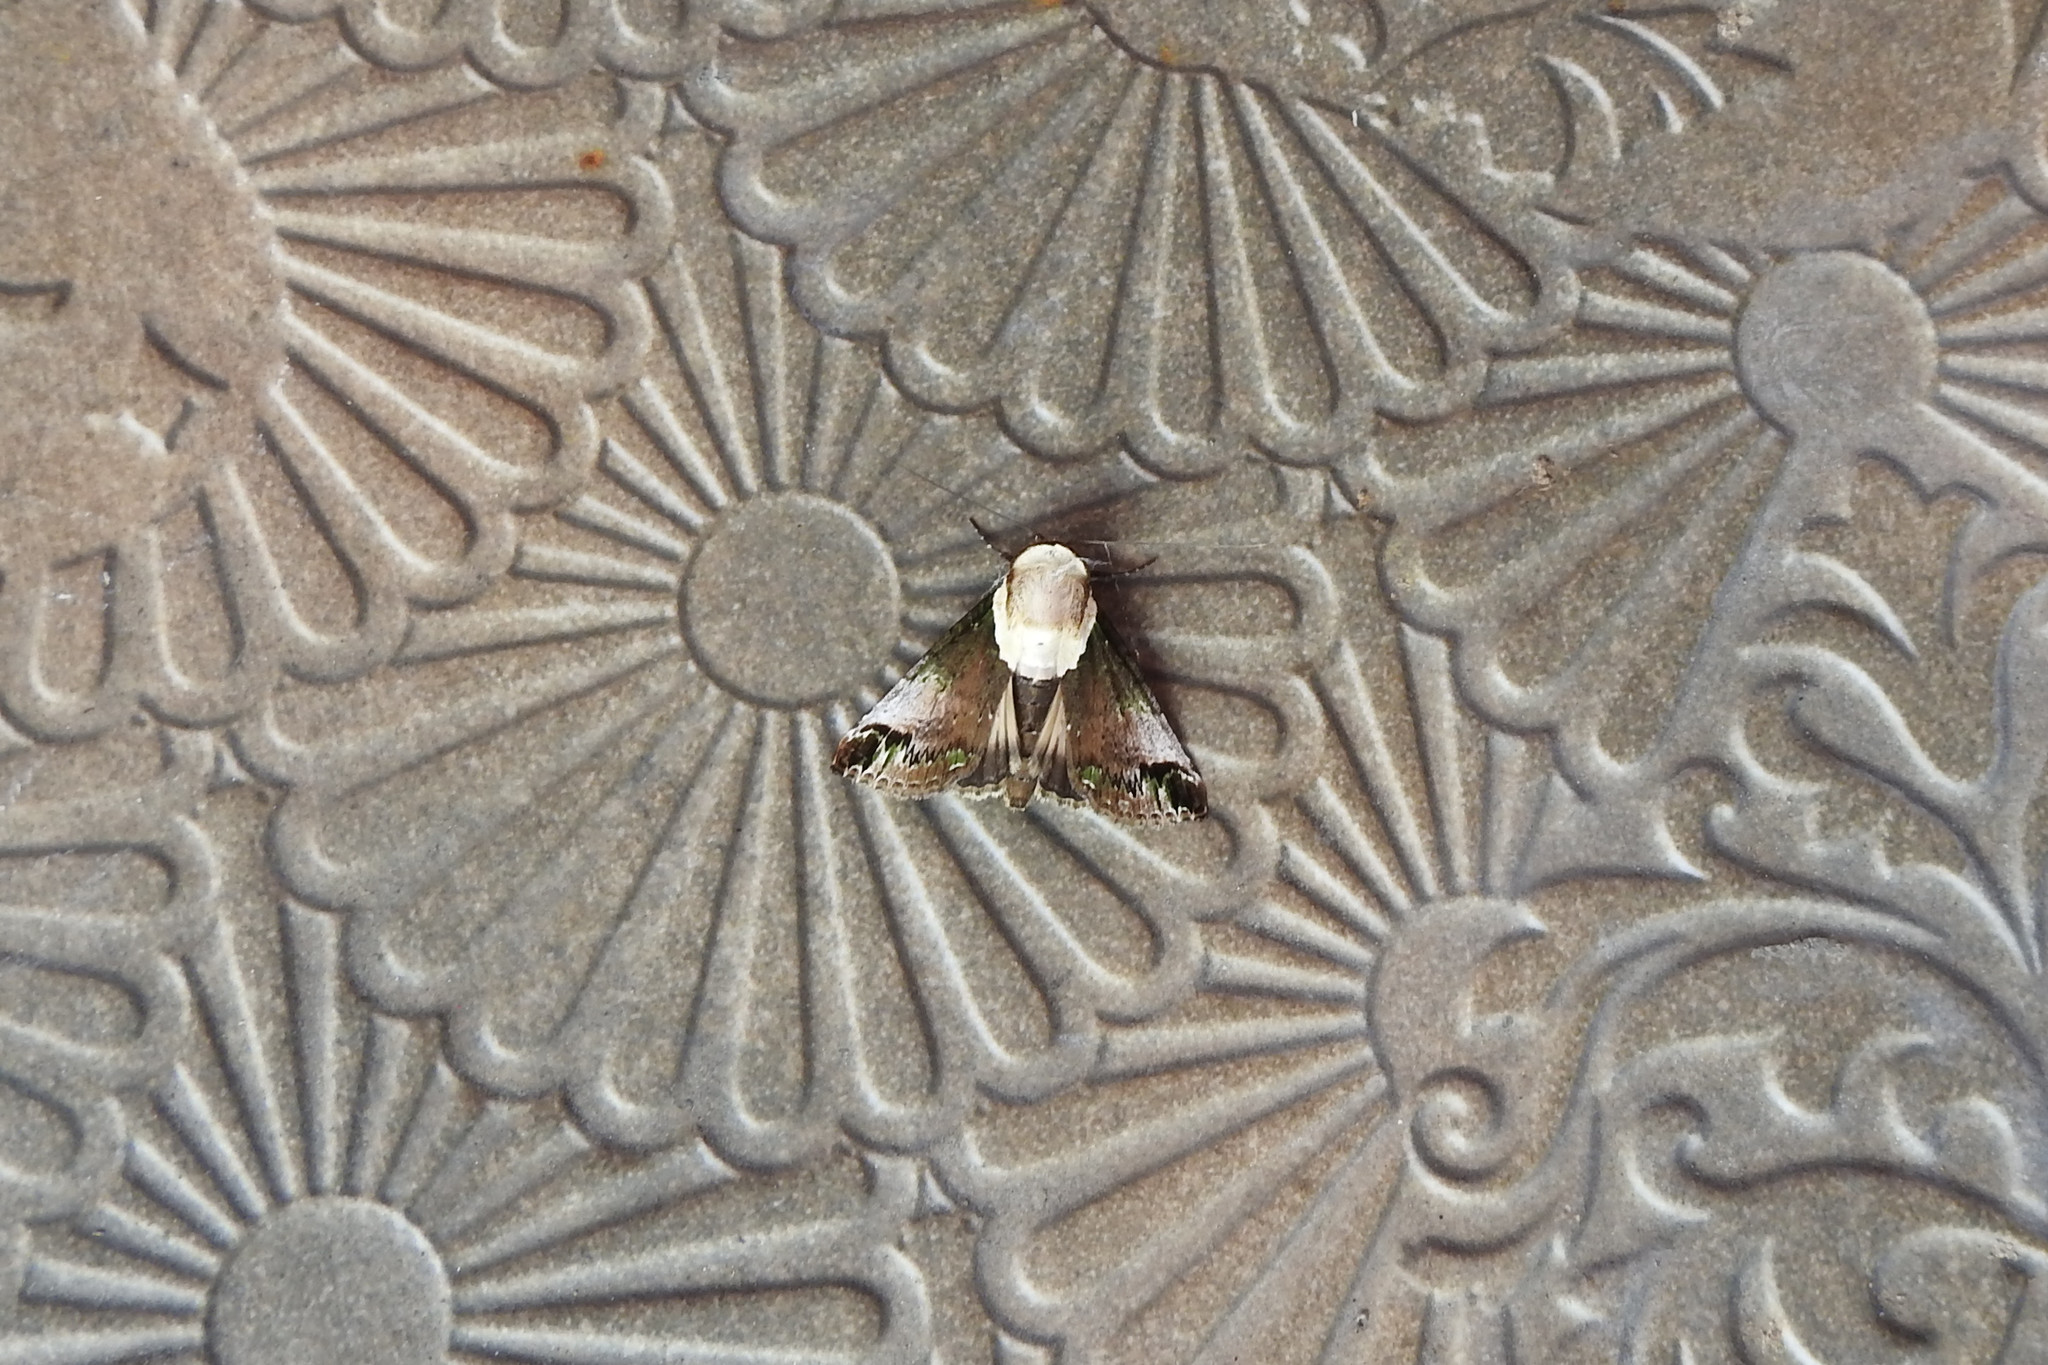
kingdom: Animalia
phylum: Arthropoda
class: Insecta
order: Lepidoptera
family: Nolidae
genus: Risoba
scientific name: Risoba prominens
